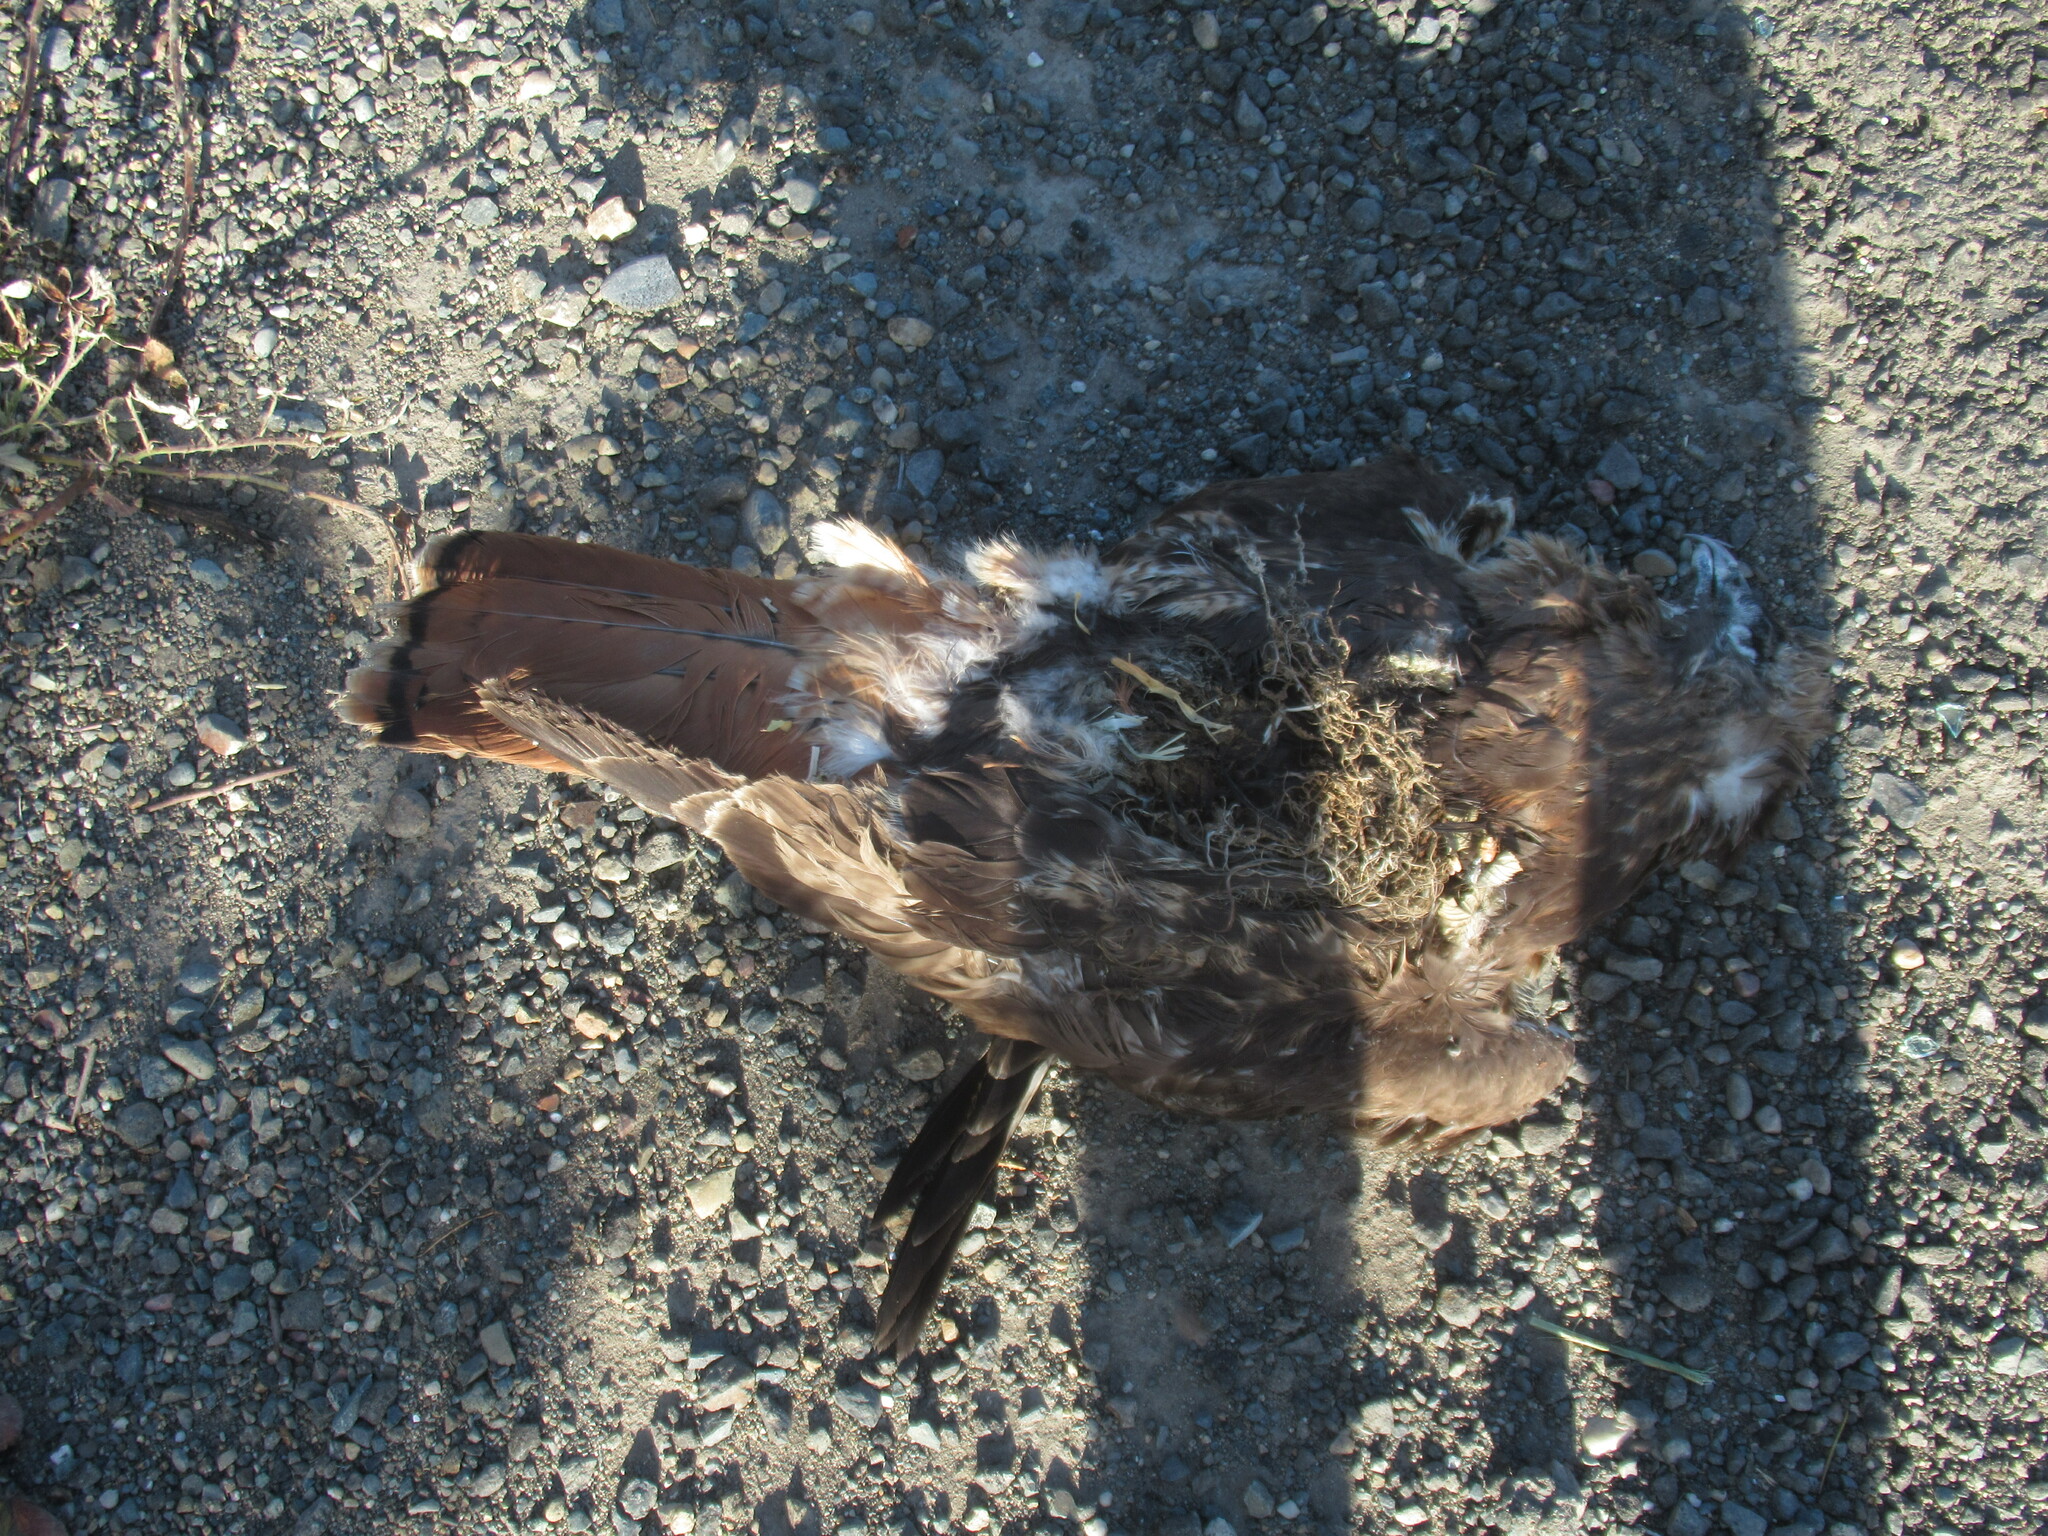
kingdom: Animalia
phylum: Chordata
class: Aves
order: Accipitriformes
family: Accipitridae
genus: Buteo
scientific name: Buteo jamaicensis
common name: Red-tailed hawk
